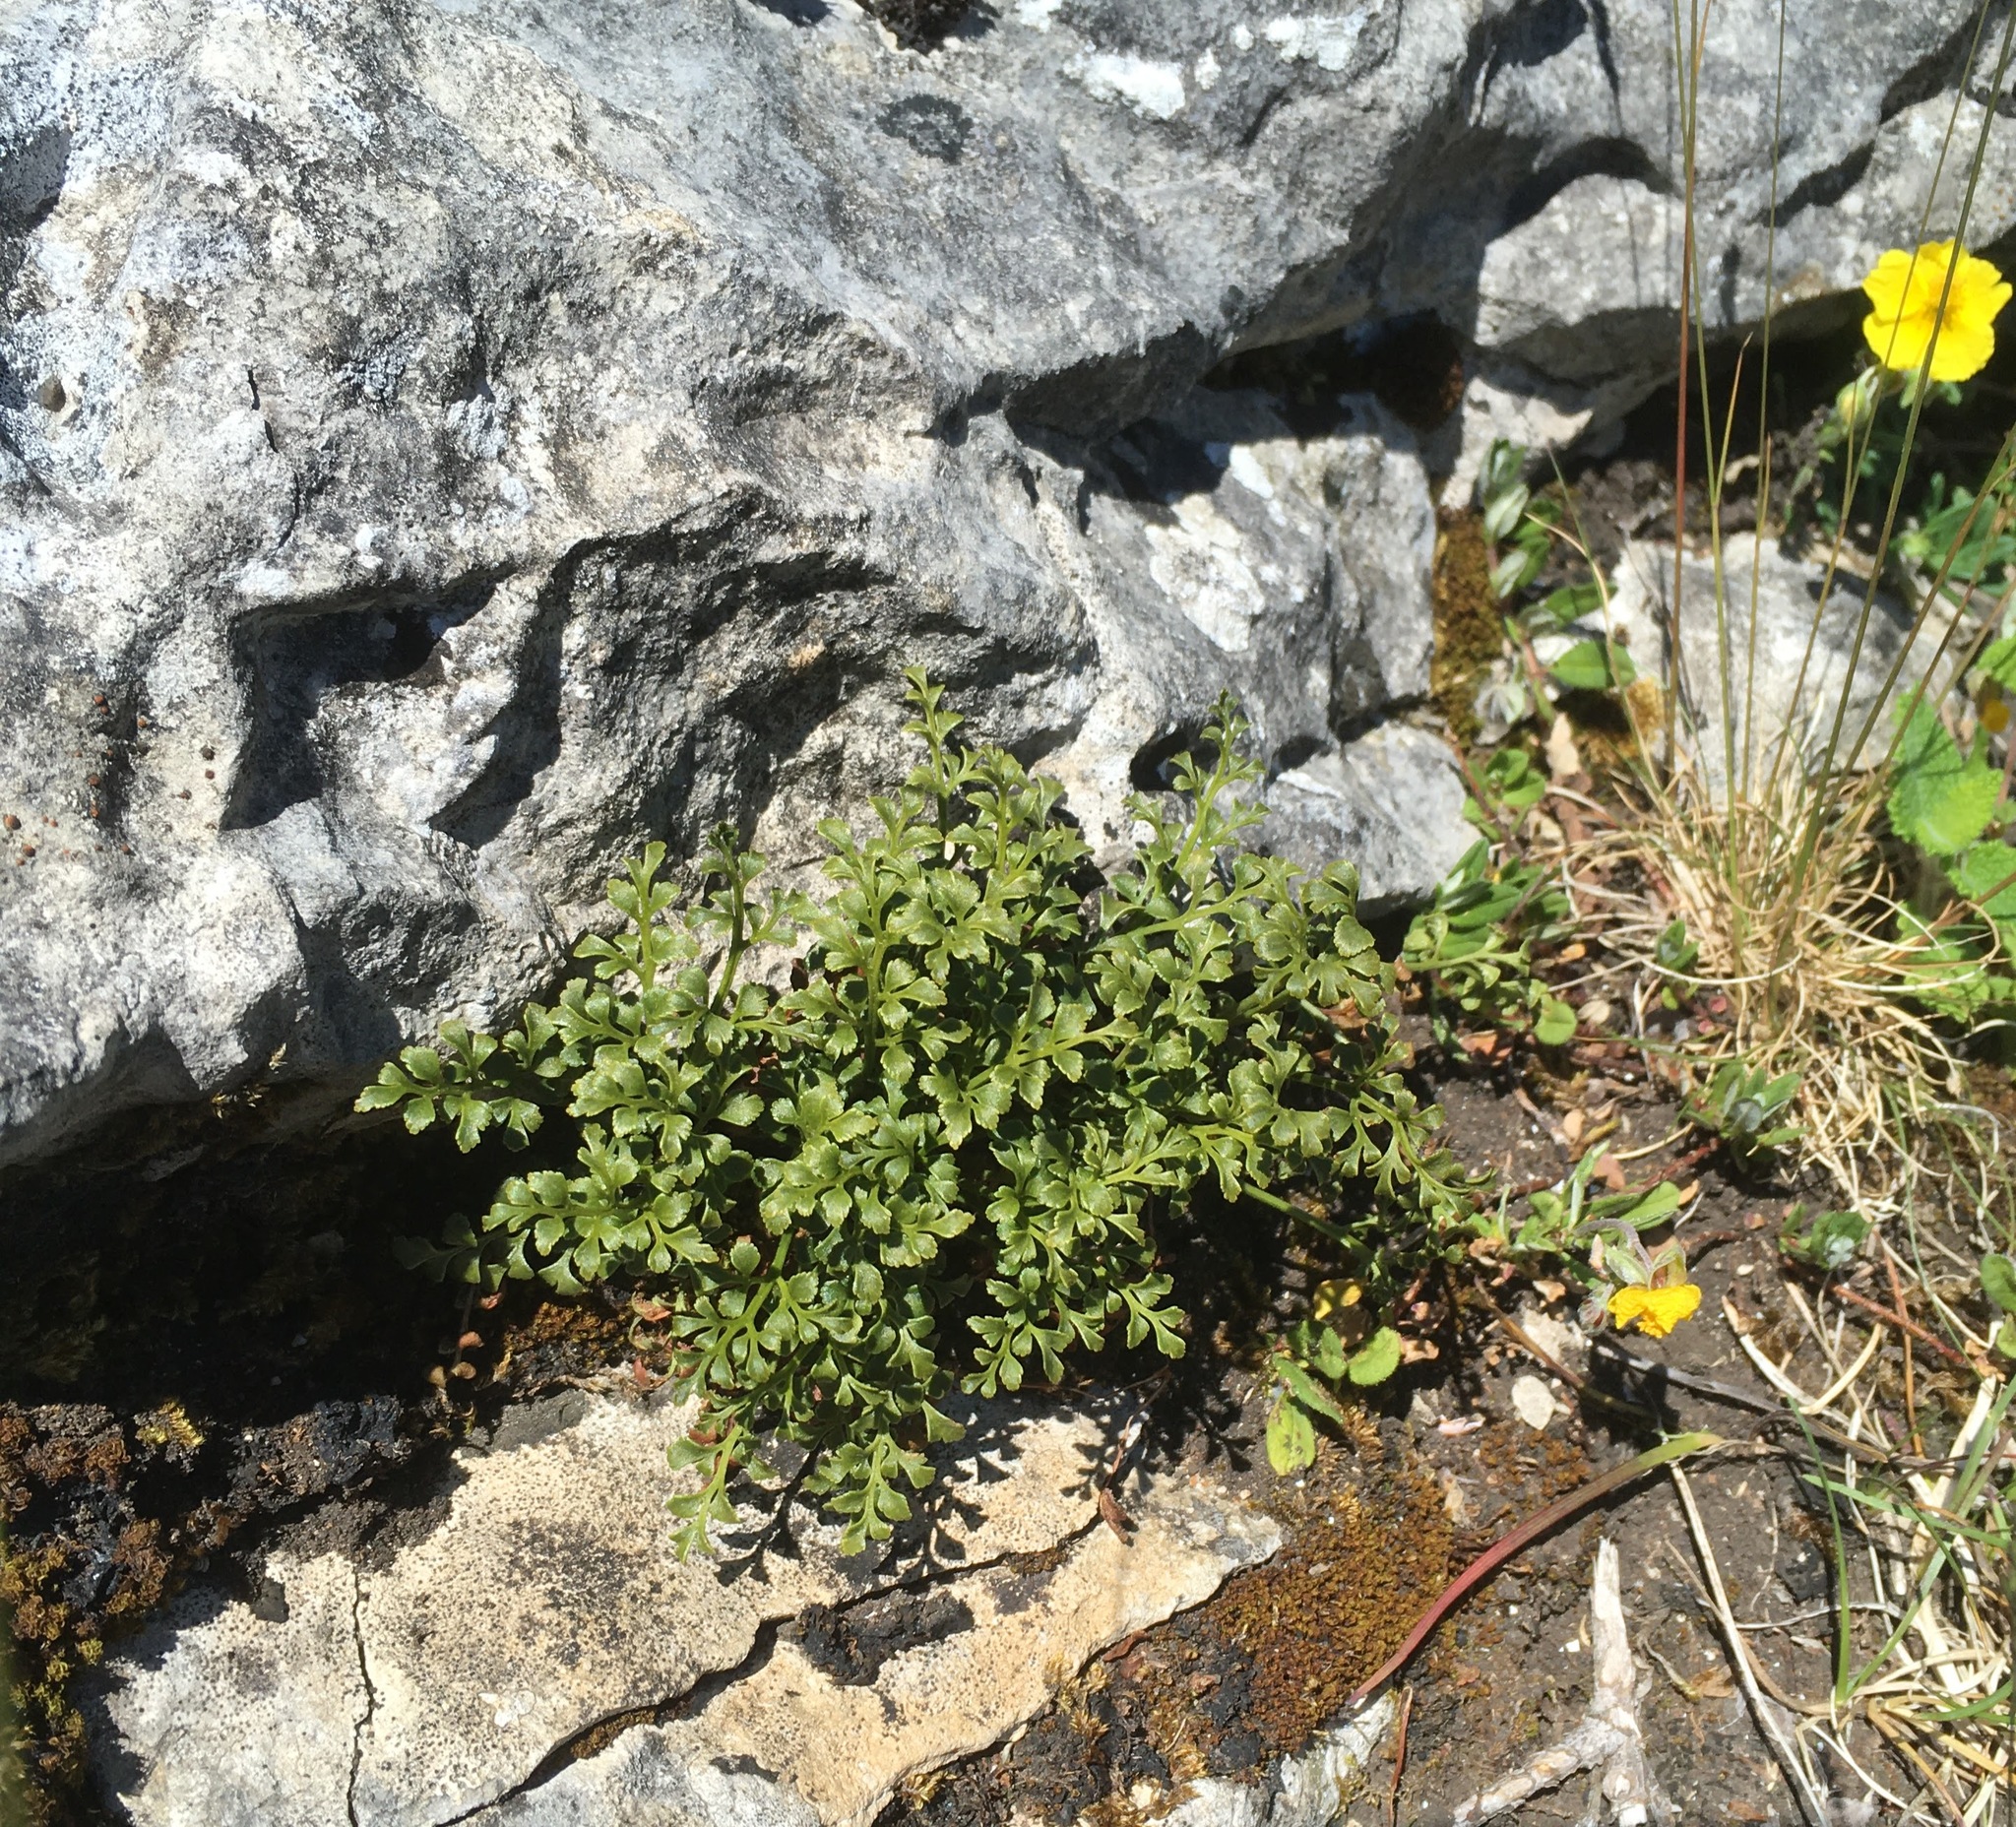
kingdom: Plantae
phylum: Tracheophyta
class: Polypodiopsida
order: Polypodiales
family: Aspleniaceae
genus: Asplenium
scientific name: Asplenium ruta-muraria
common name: Wall-rue
